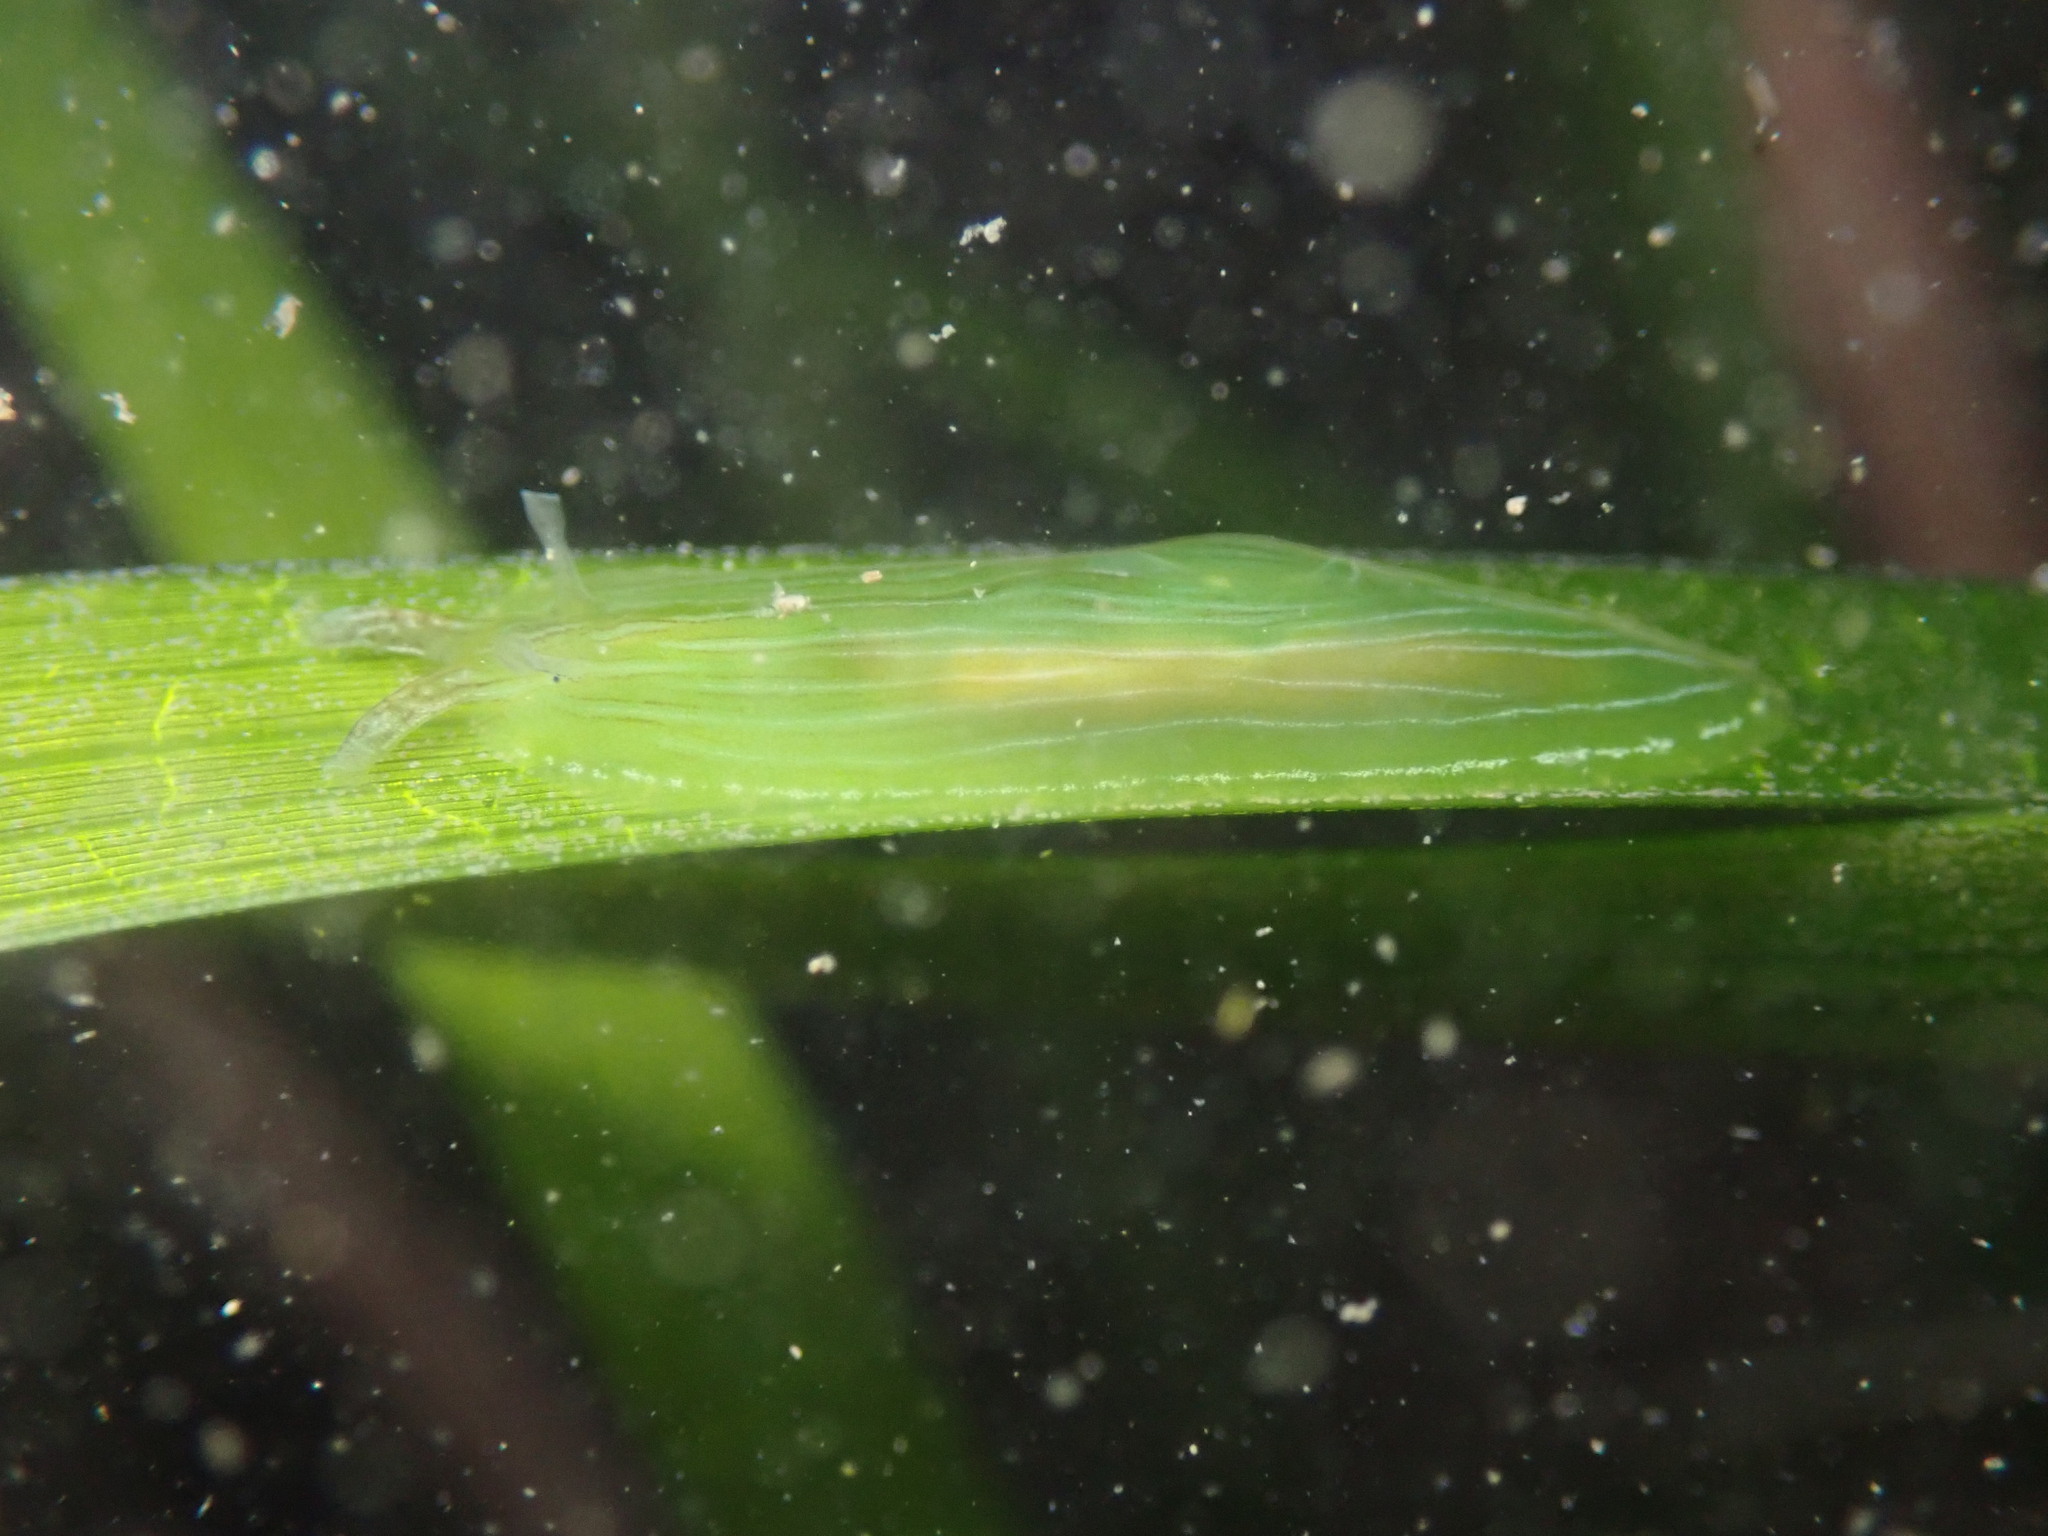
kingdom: Animalia
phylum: Mollusca
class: Gastropoda
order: Aplysiida
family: Aplysiidae
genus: Phyllaplysia
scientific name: Phyllaplysia taylori
